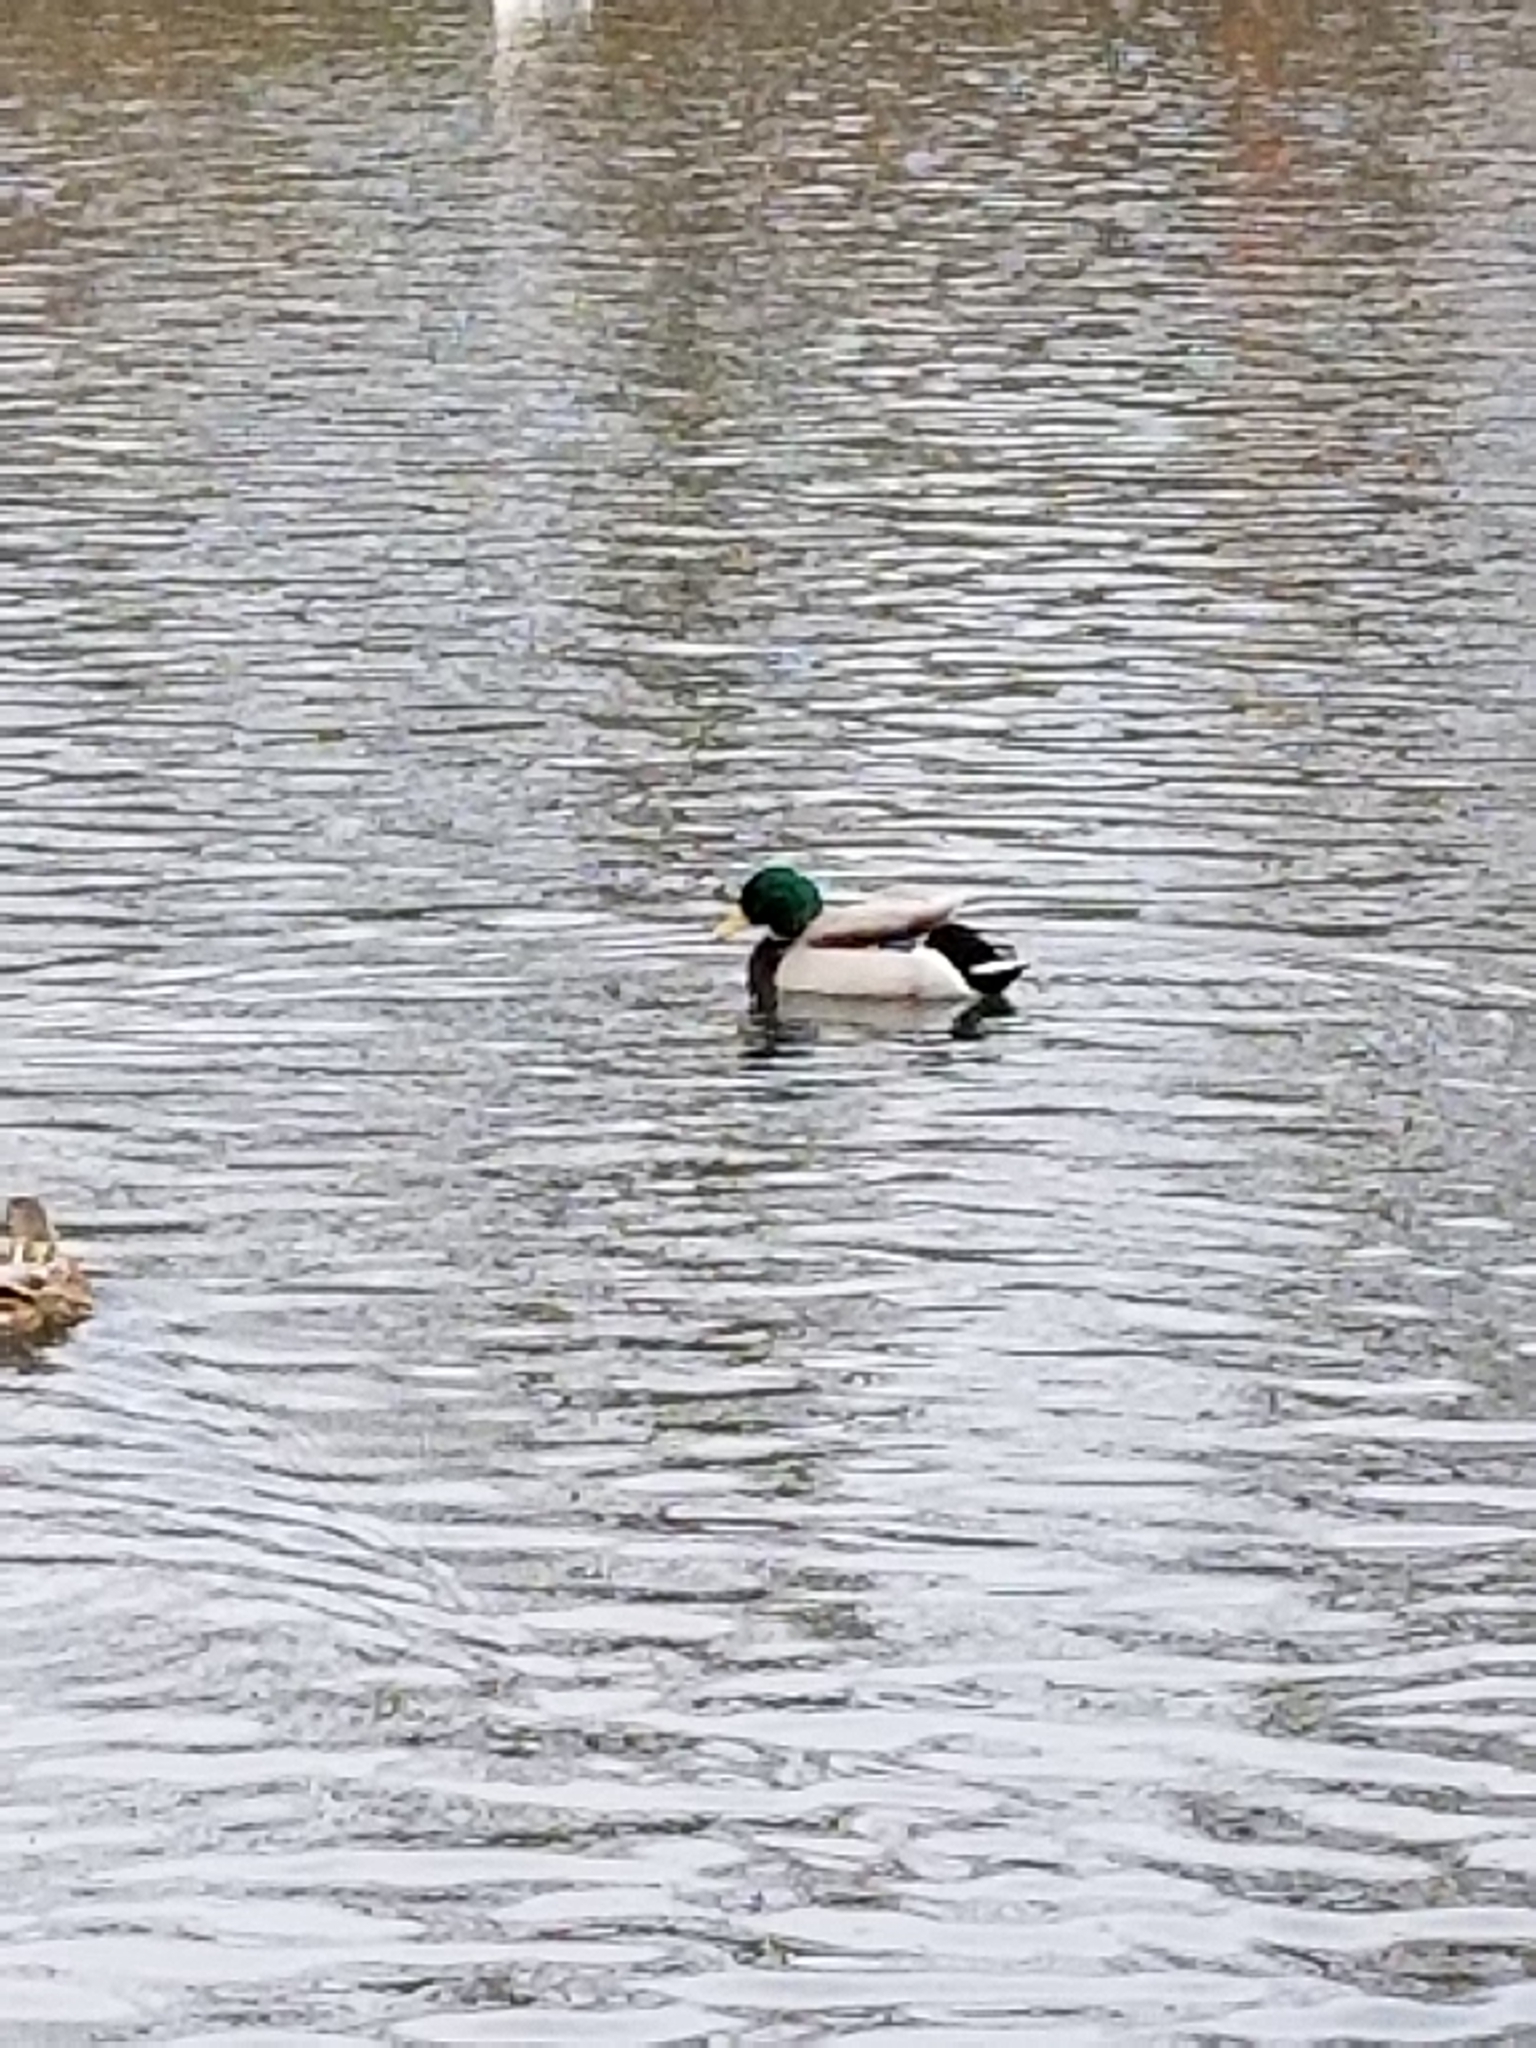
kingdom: Animalia
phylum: Chordata
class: Aves
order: Anseriformes
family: Anatidae
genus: Anas
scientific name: Anas platyrhynchos
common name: Mallard
